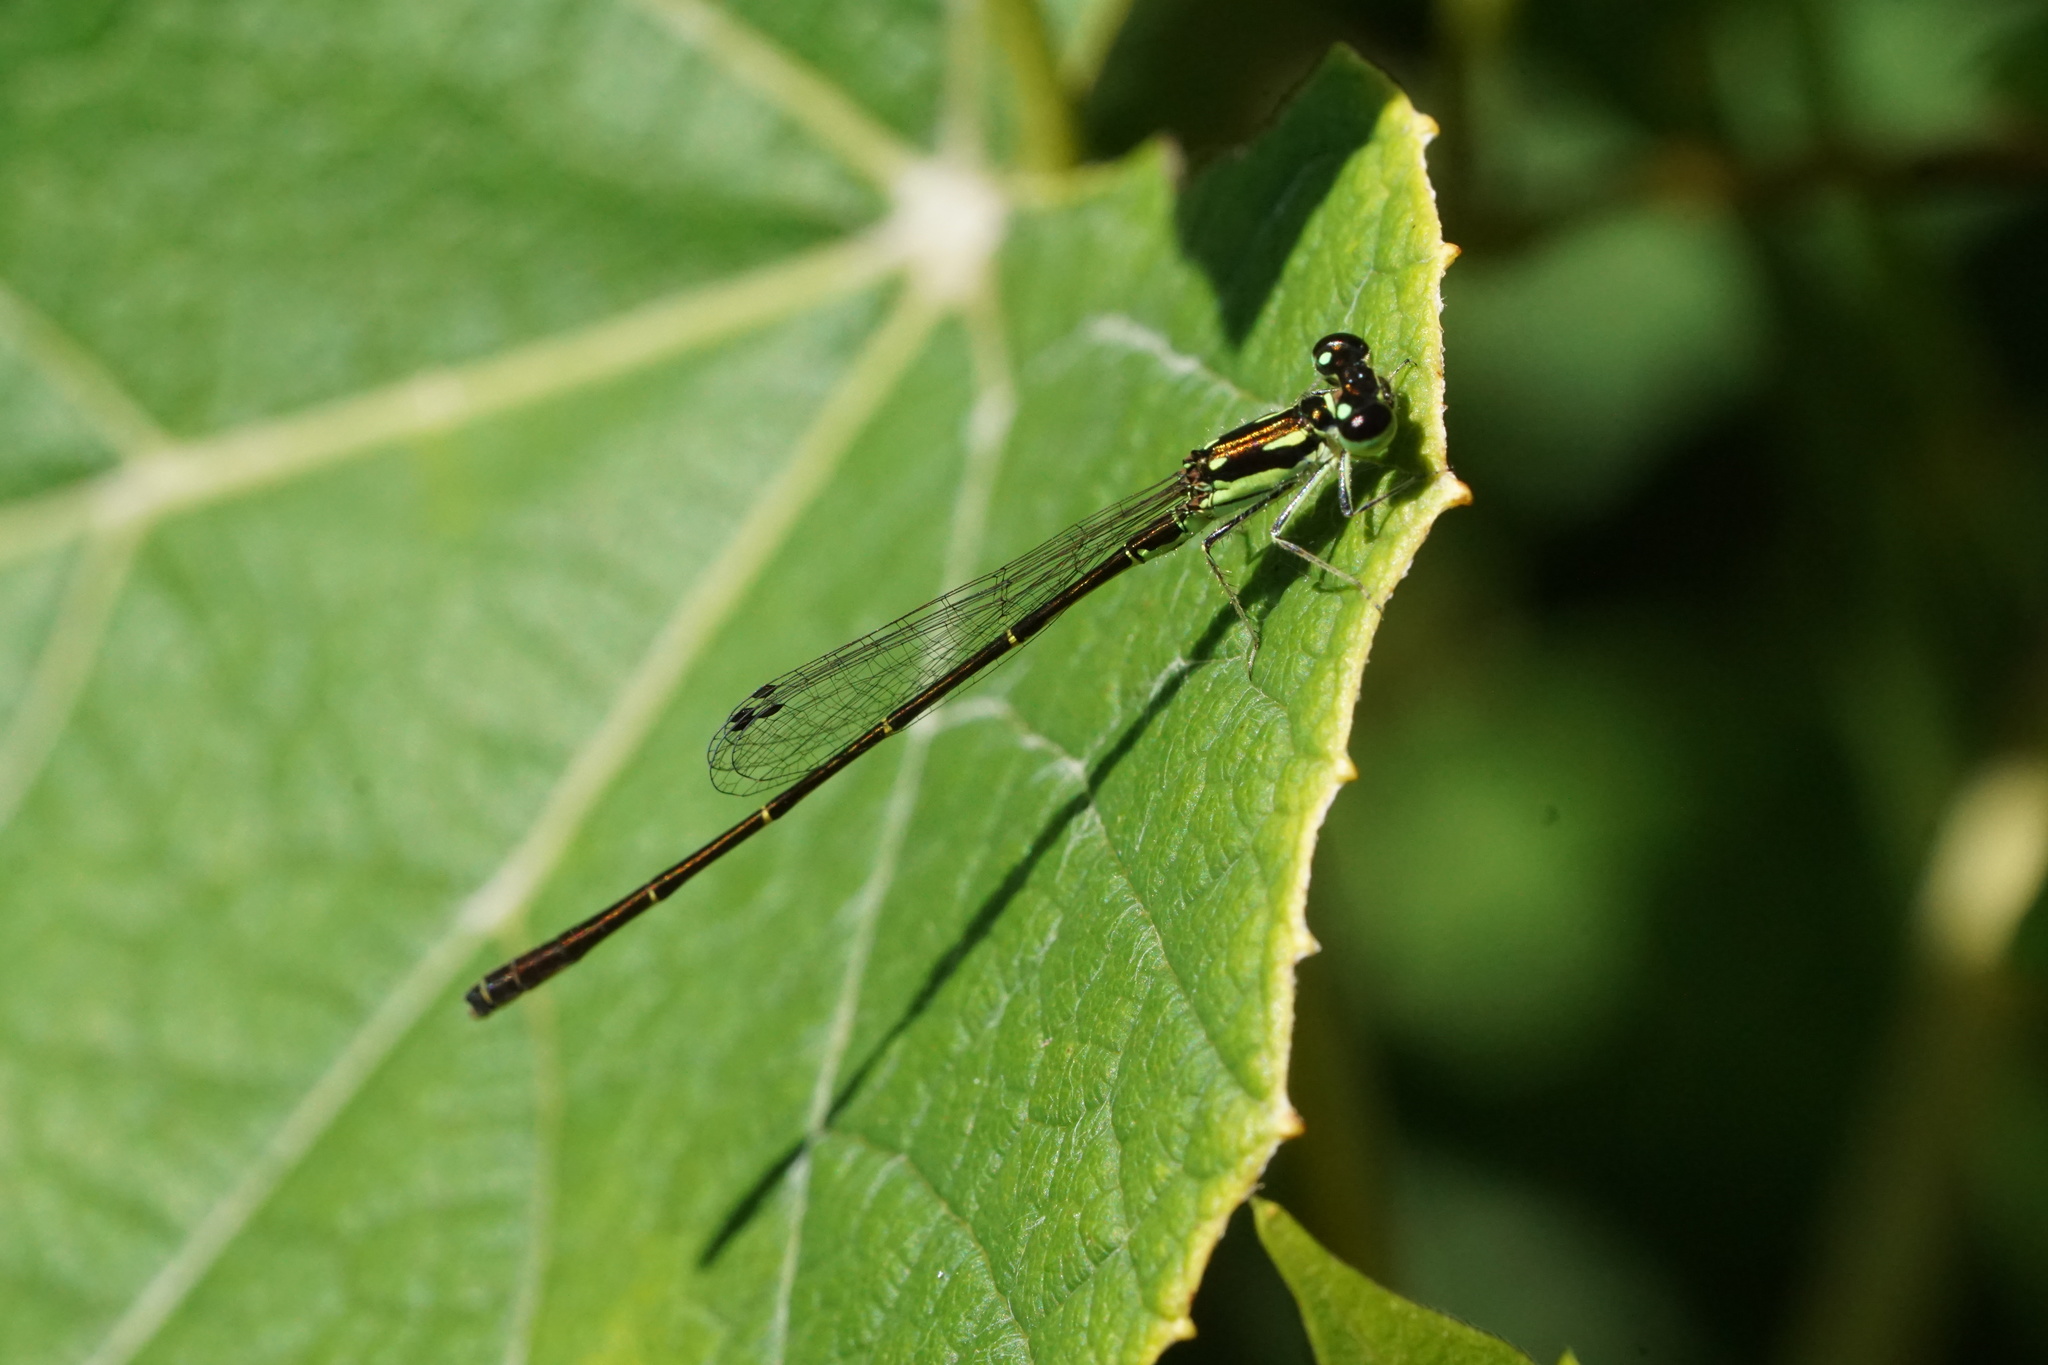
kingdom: Animalia
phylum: Arthropoda
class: Insecta
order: Odonata
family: Coenagrionidae
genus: Ischnura
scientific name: Ischnura posita
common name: Fragile forktail
